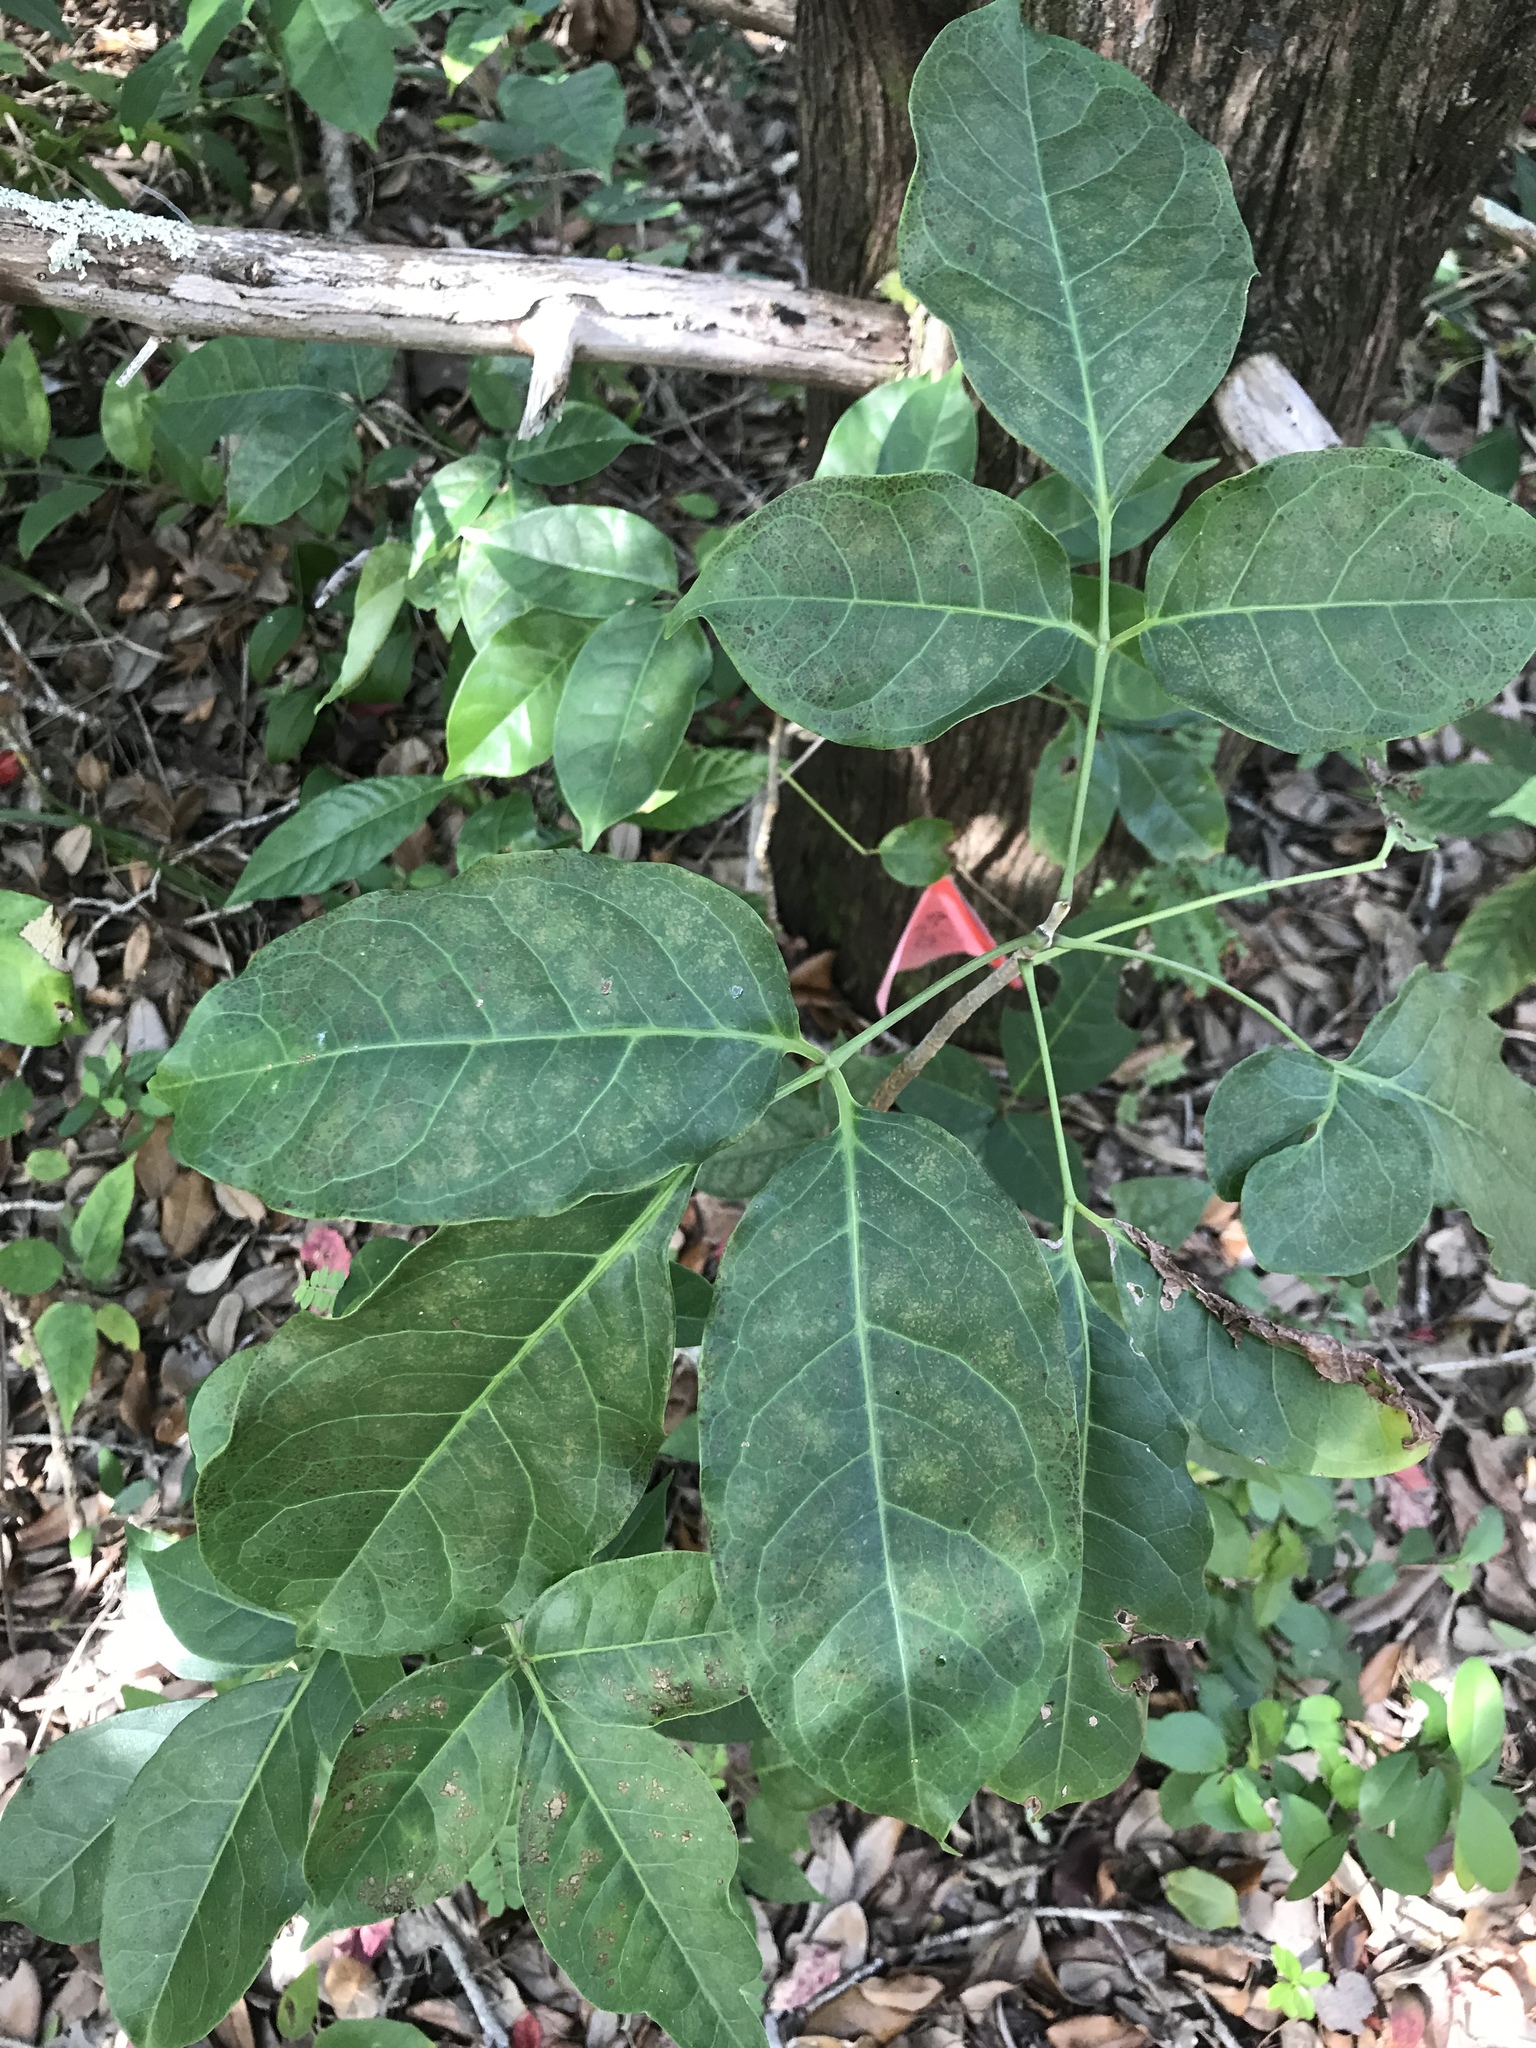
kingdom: Plantae
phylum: Tracheophyta
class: Magnoliopsida
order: Sapindales
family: Burseraceae
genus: Bursera
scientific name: Bursera simaruba
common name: Turpentine tree
